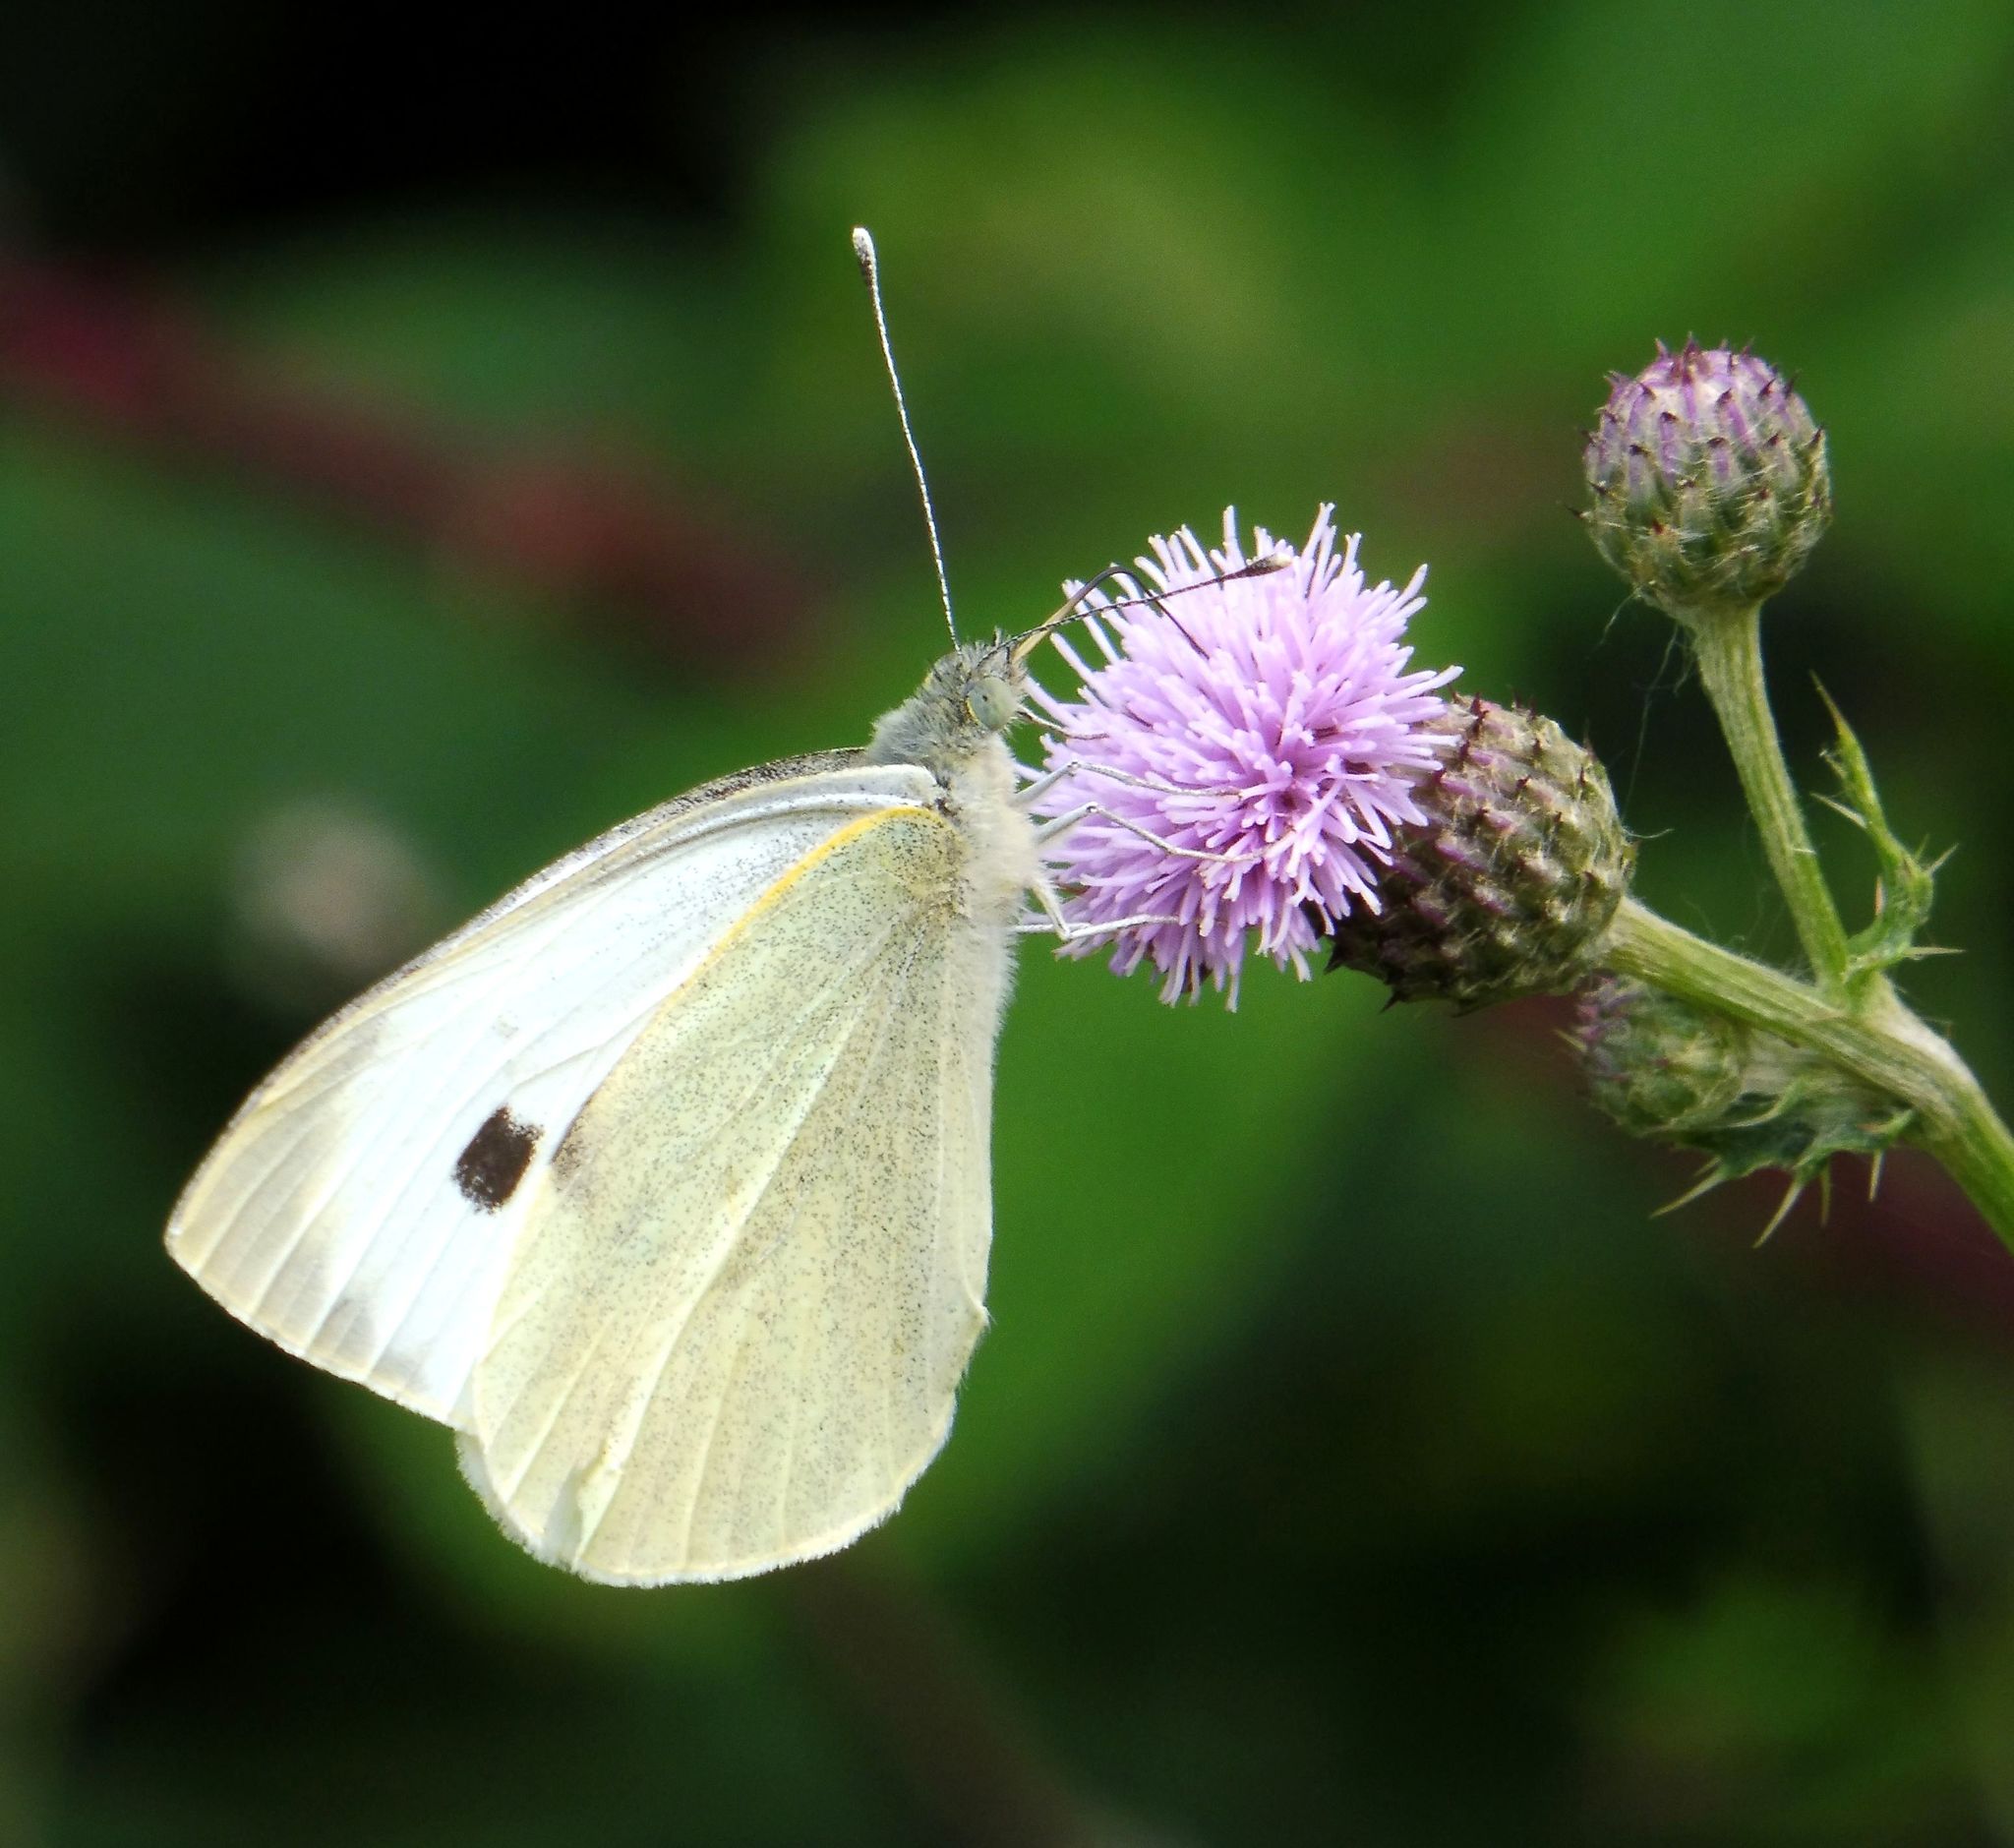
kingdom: Animalia
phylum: Arthropoda
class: Insecta
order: Lepidoptera
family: Pieridae
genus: Pieris
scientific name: Pieris brassicae
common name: Large white
